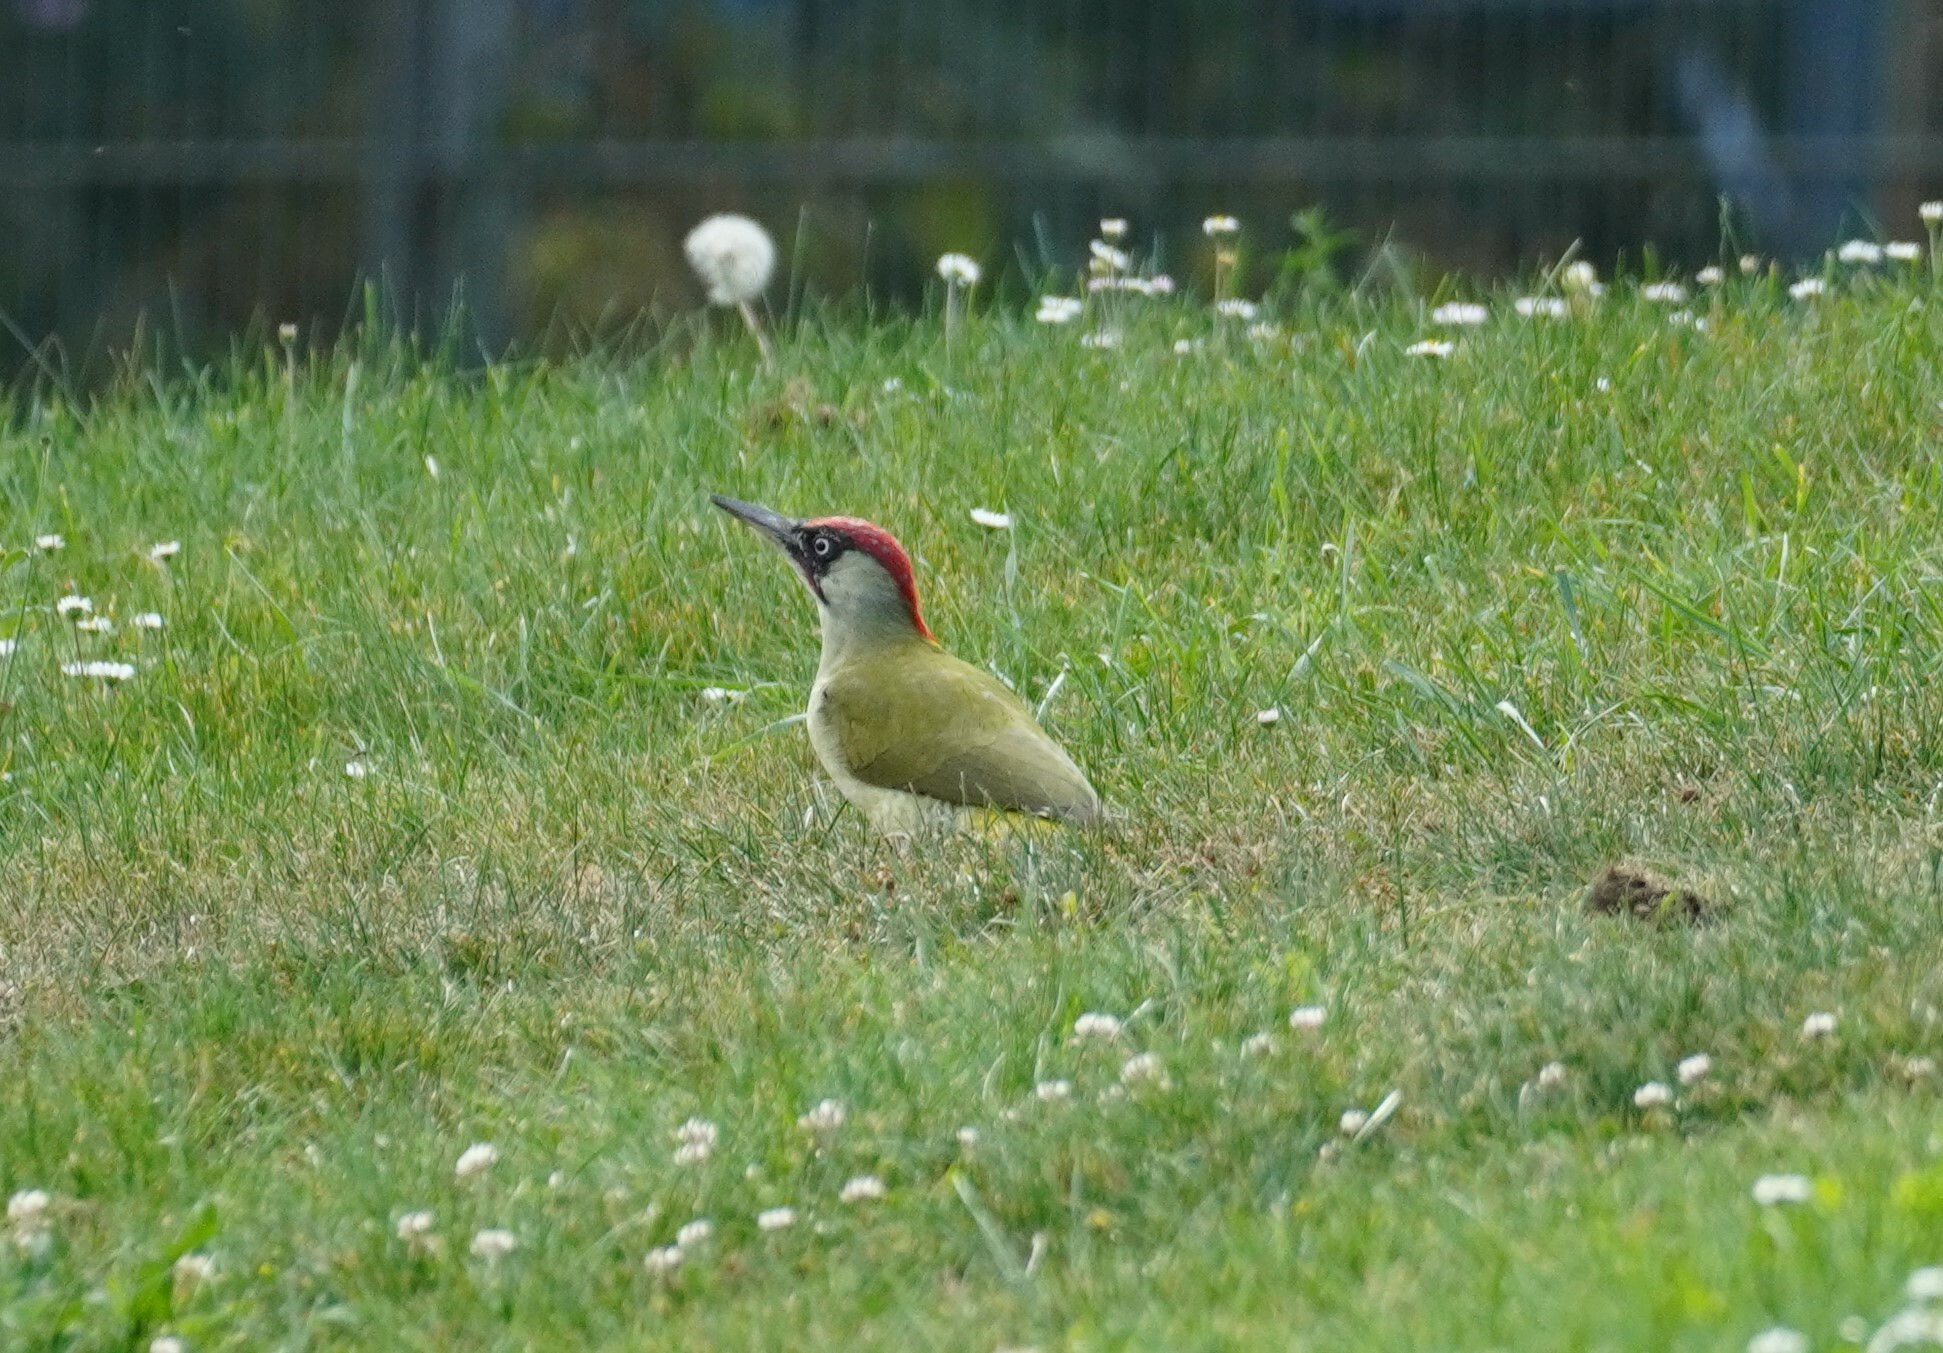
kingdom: Animalia
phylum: Chordata
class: Aves
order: Piciformes
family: Picidae
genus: Picus
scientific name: Picus viridis
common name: European green woodpecker
